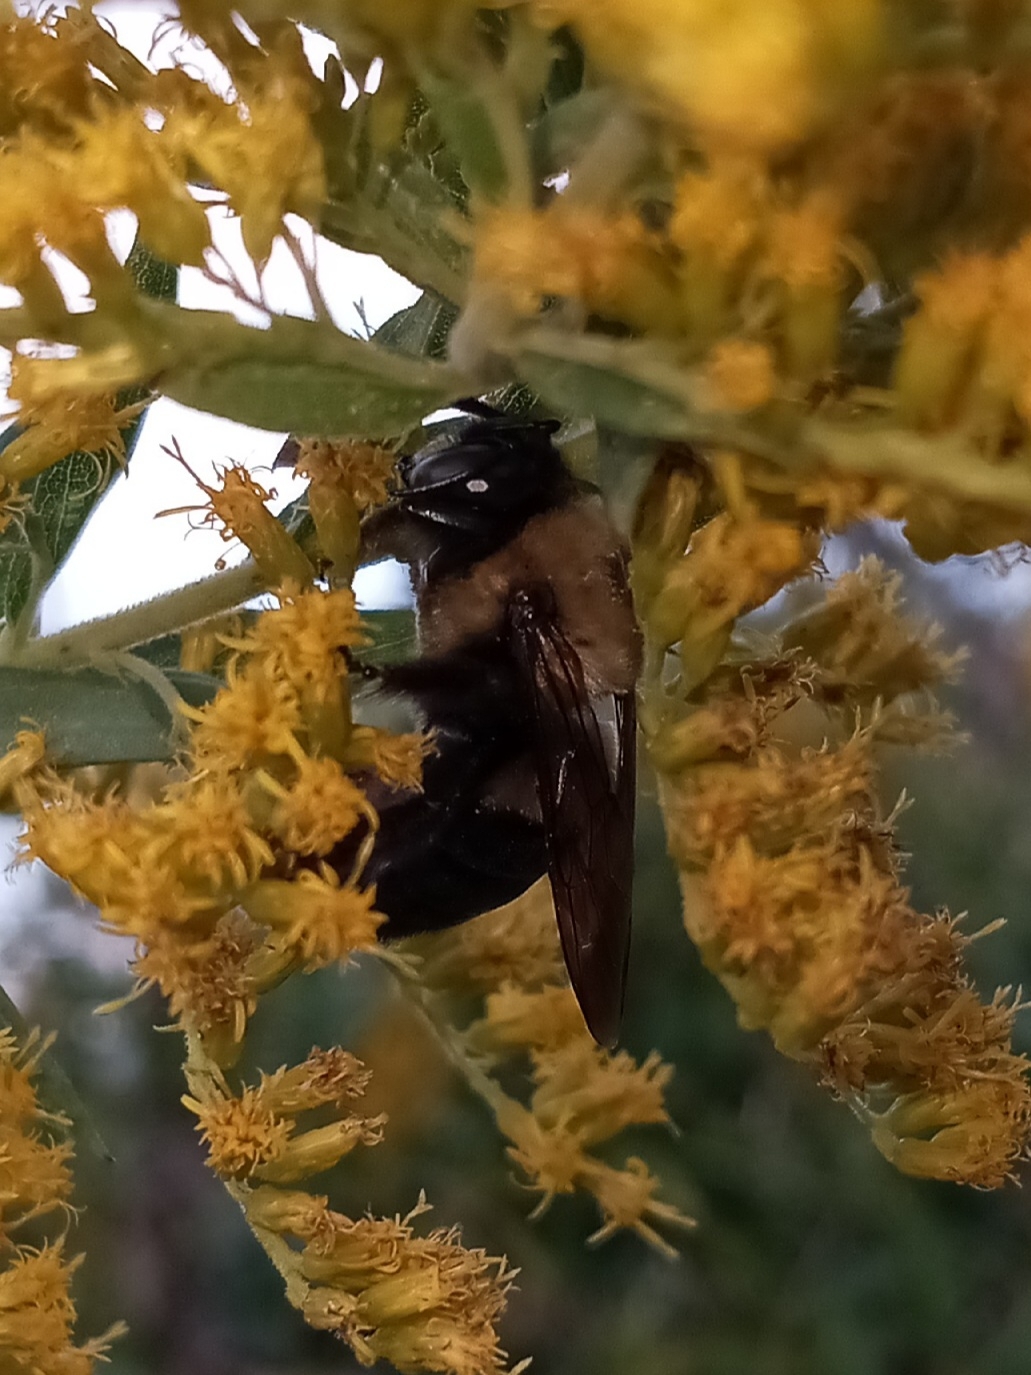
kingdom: Animalia
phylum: Arthropoda
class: Insecta
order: Hymenoptera
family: Apidae
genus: Xylocopa
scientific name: Xylocopa virginica
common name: Carpenter bee
